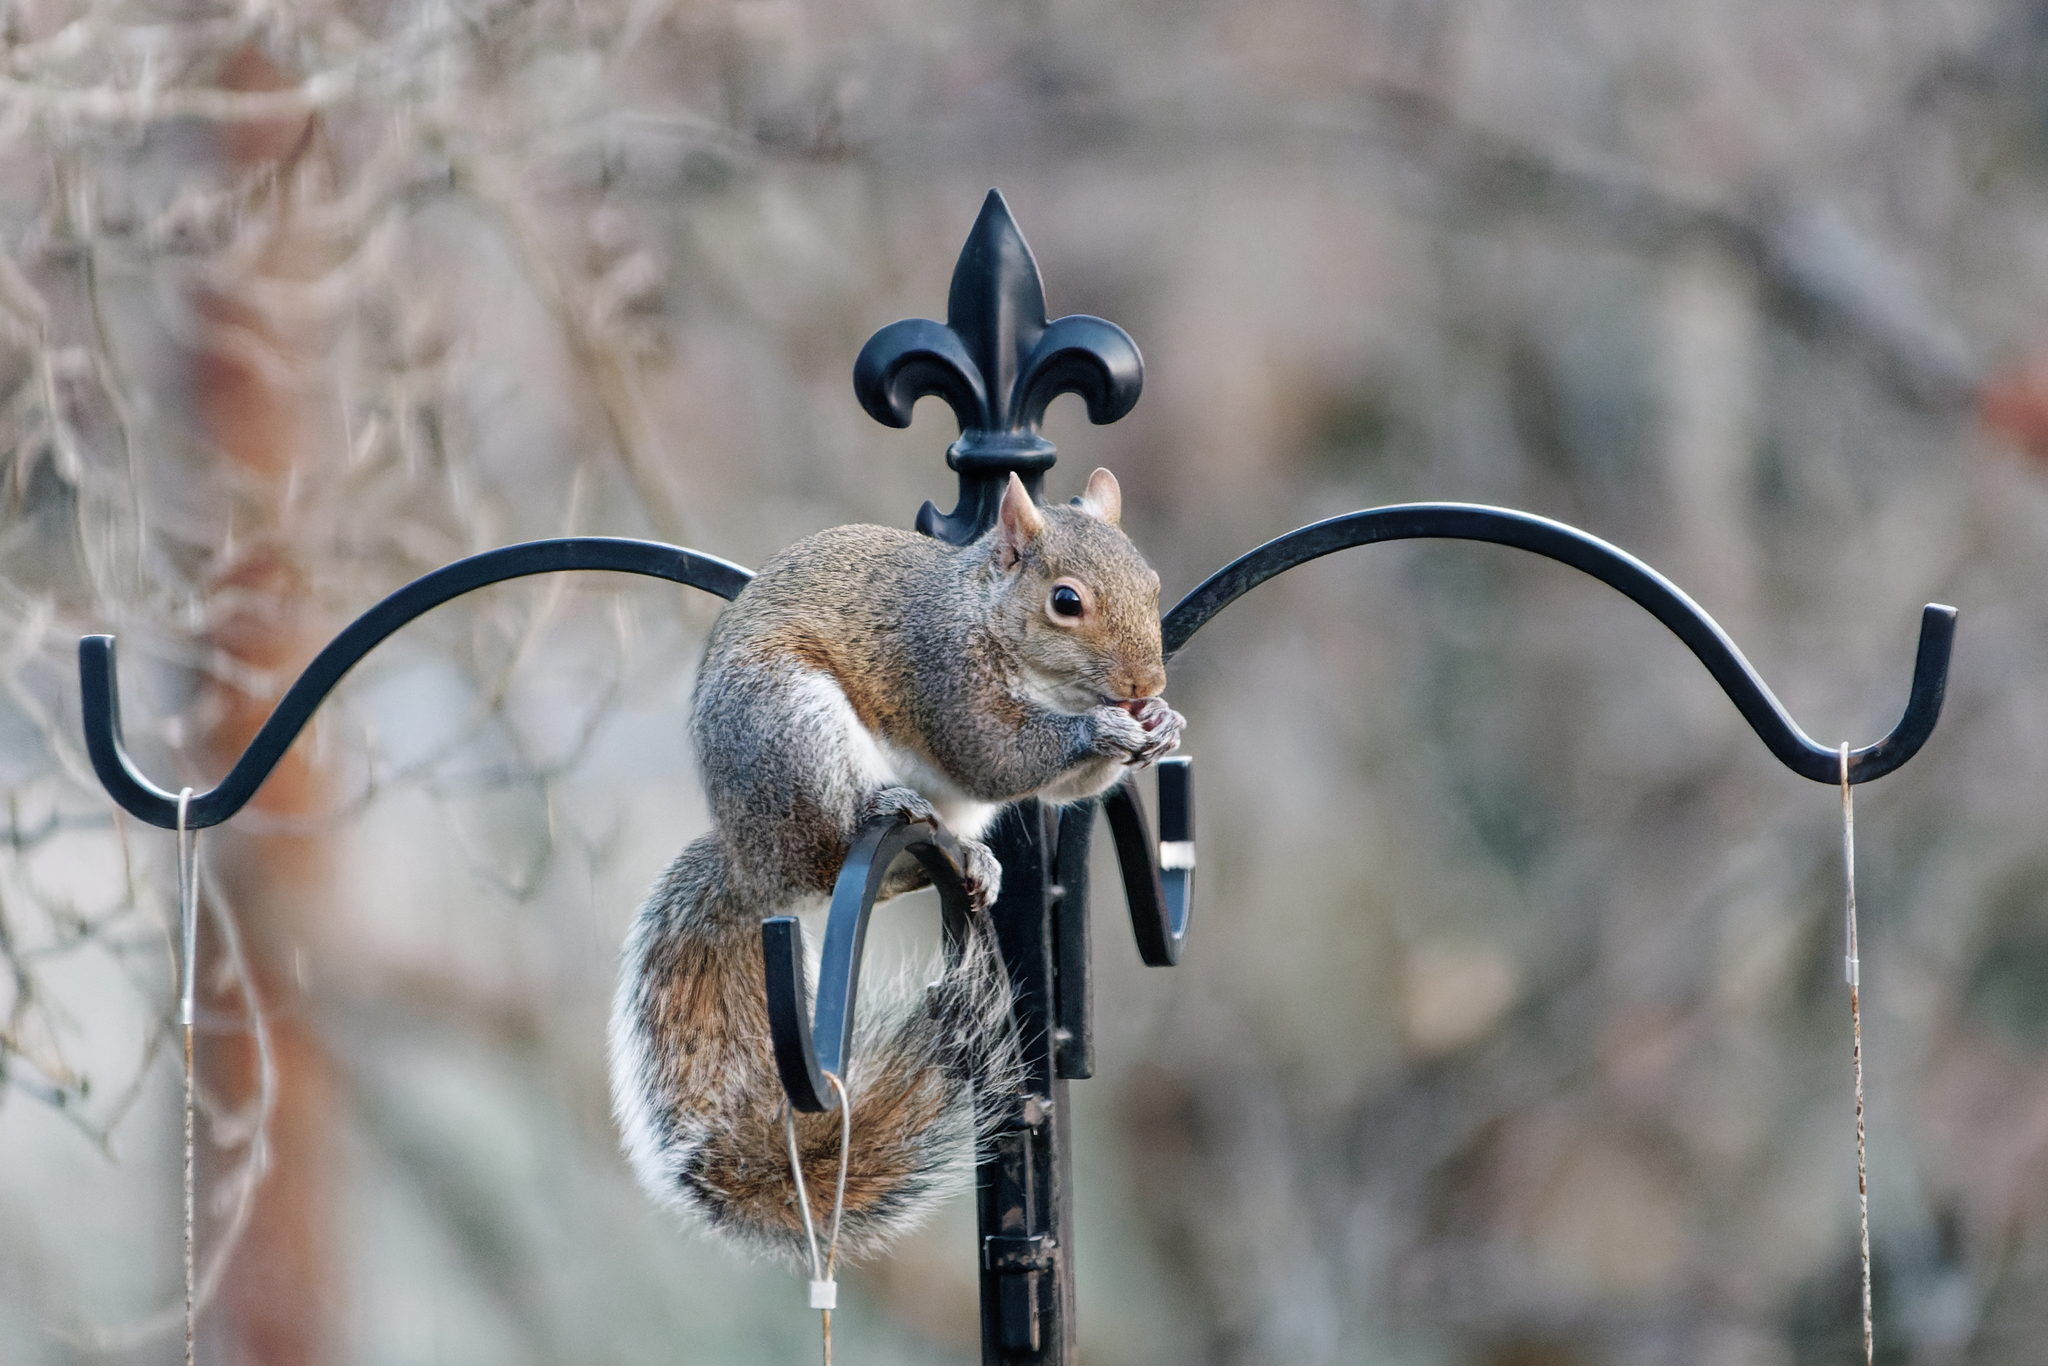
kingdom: Animalia
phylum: Chordata
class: Mammalia
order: Rodentia
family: Sciuridae
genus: Sciurus
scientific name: Sciurus carolinensis
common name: Eastern gray squirrel
